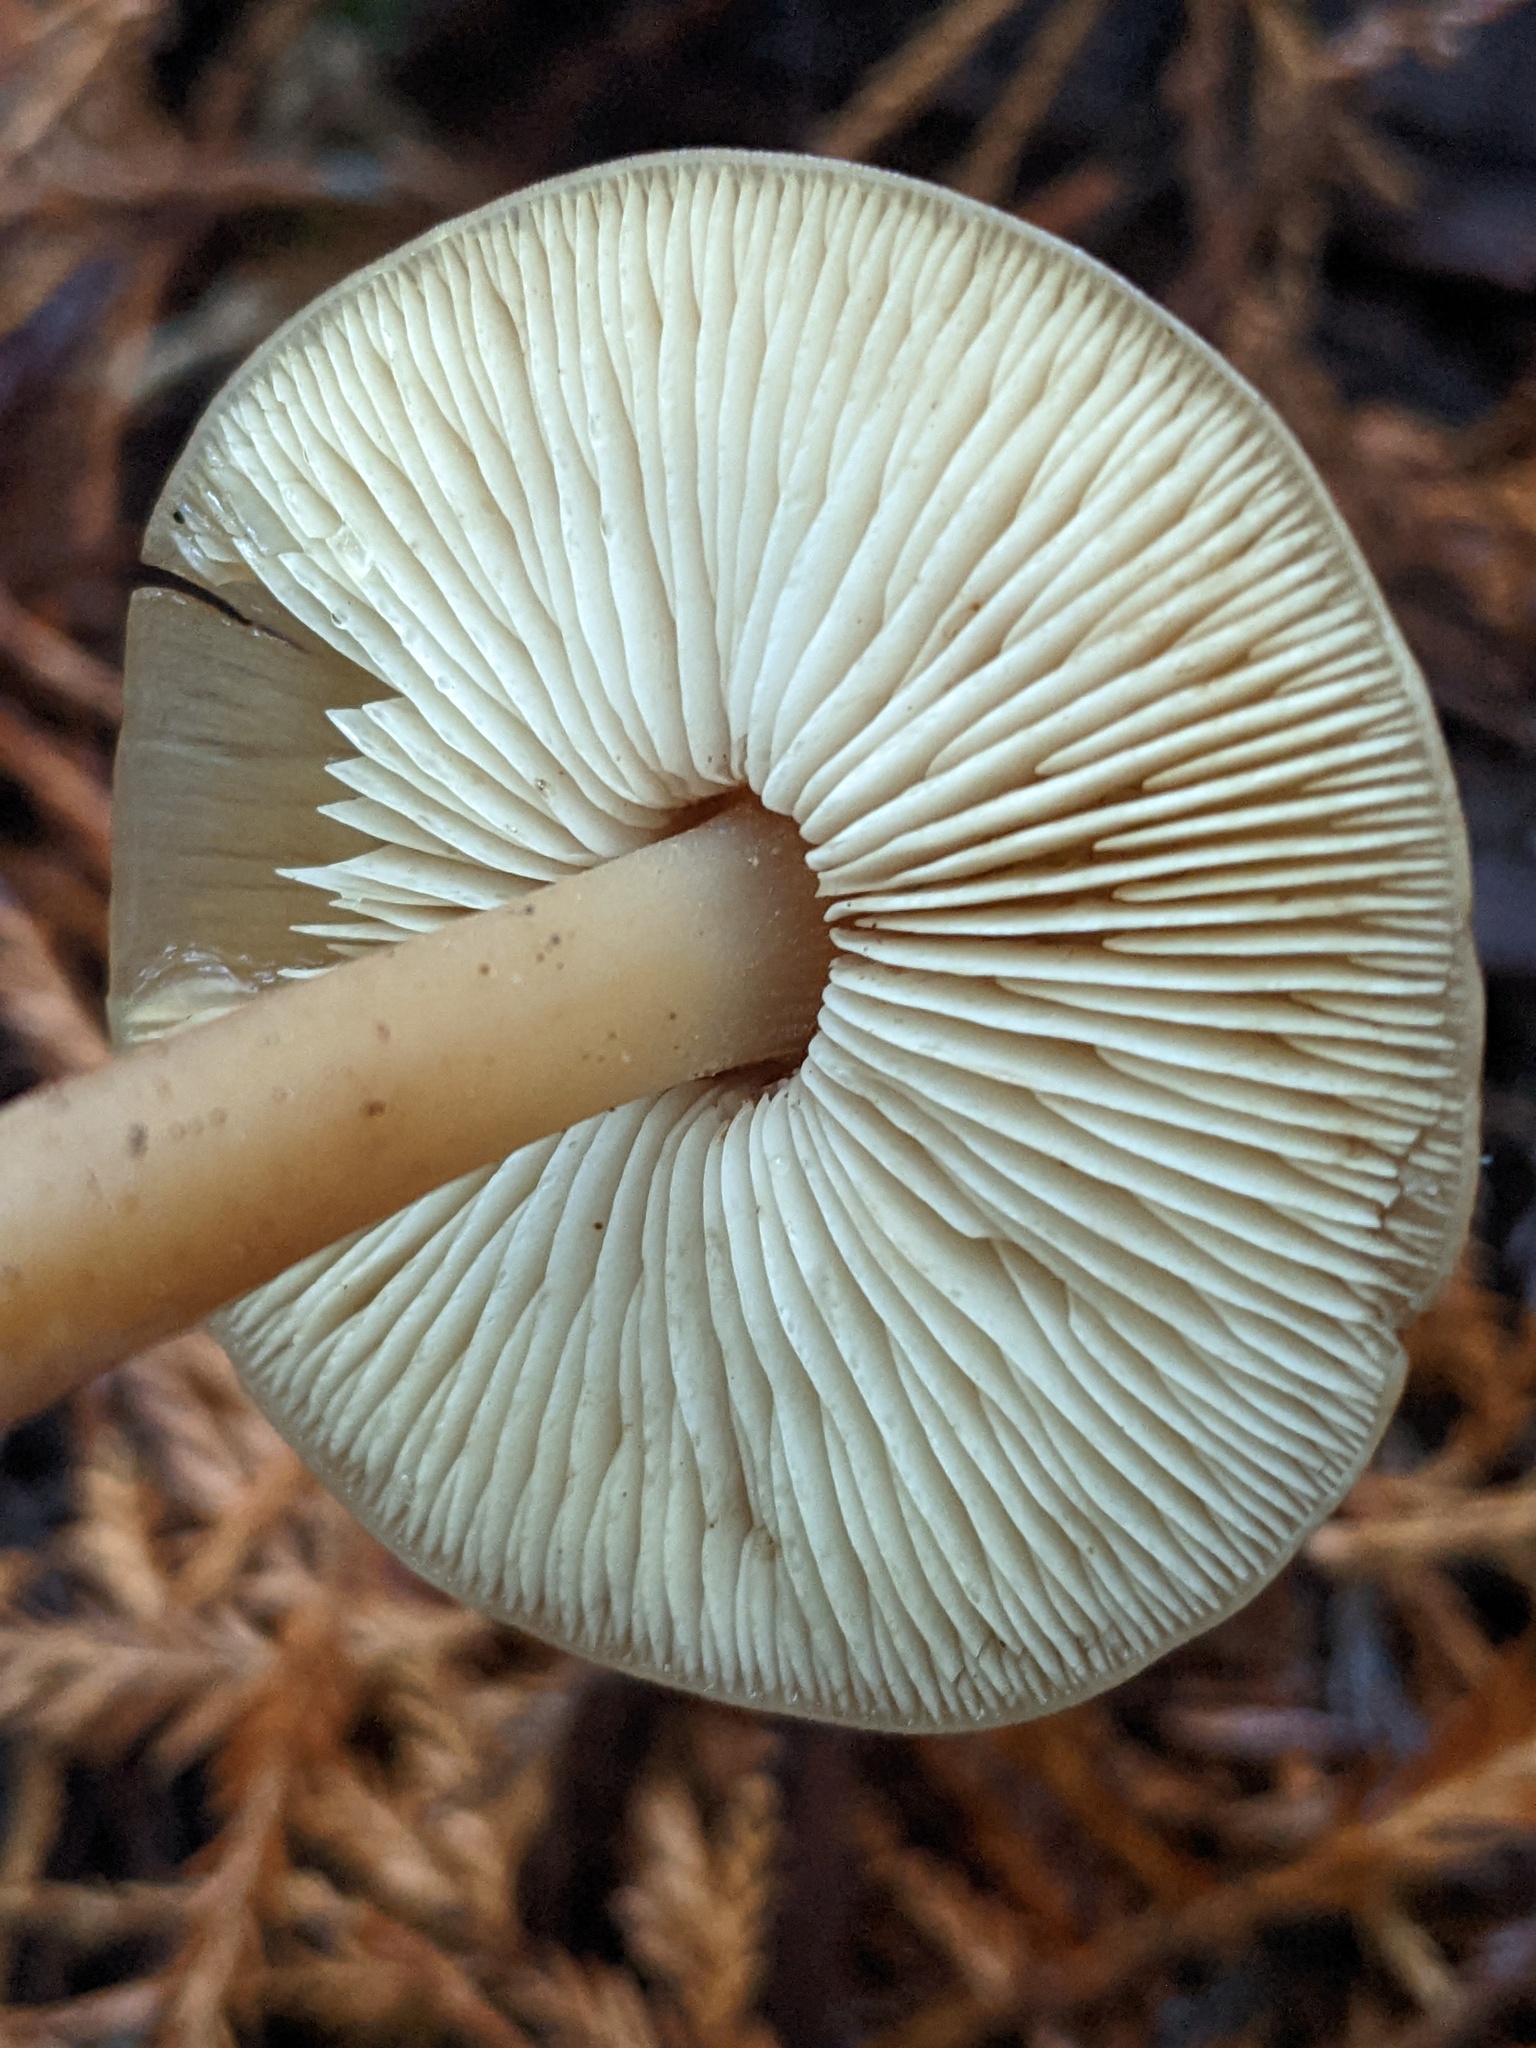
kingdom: Fungi
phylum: Basidiomycota
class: Agaricomycetes
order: Agaricales
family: Tricholomataceae
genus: Caulorhiza
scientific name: Caulorhiza umbonata
